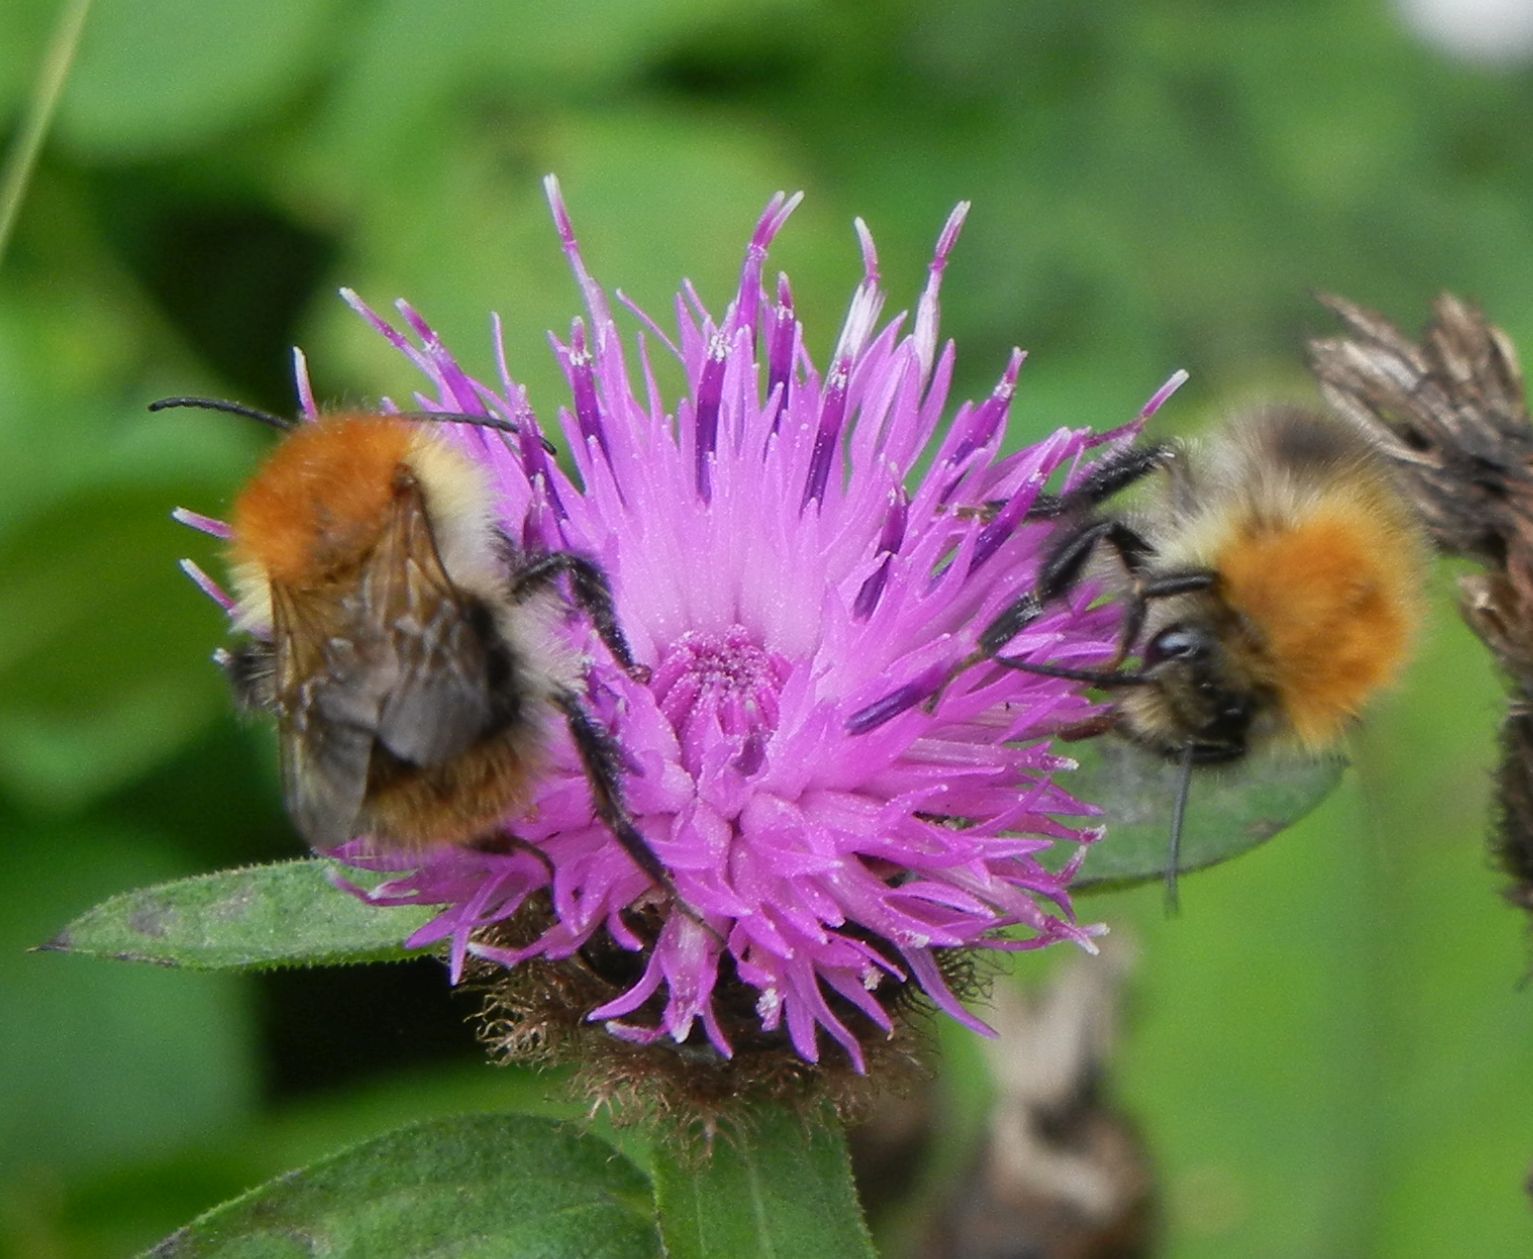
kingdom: Plantae
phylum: Tracheophyta
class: Magnoliopsida
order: Asterales
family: Asteraceae
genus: Centaurea
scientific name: Centaurea nigra
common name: Lesser knapweed
